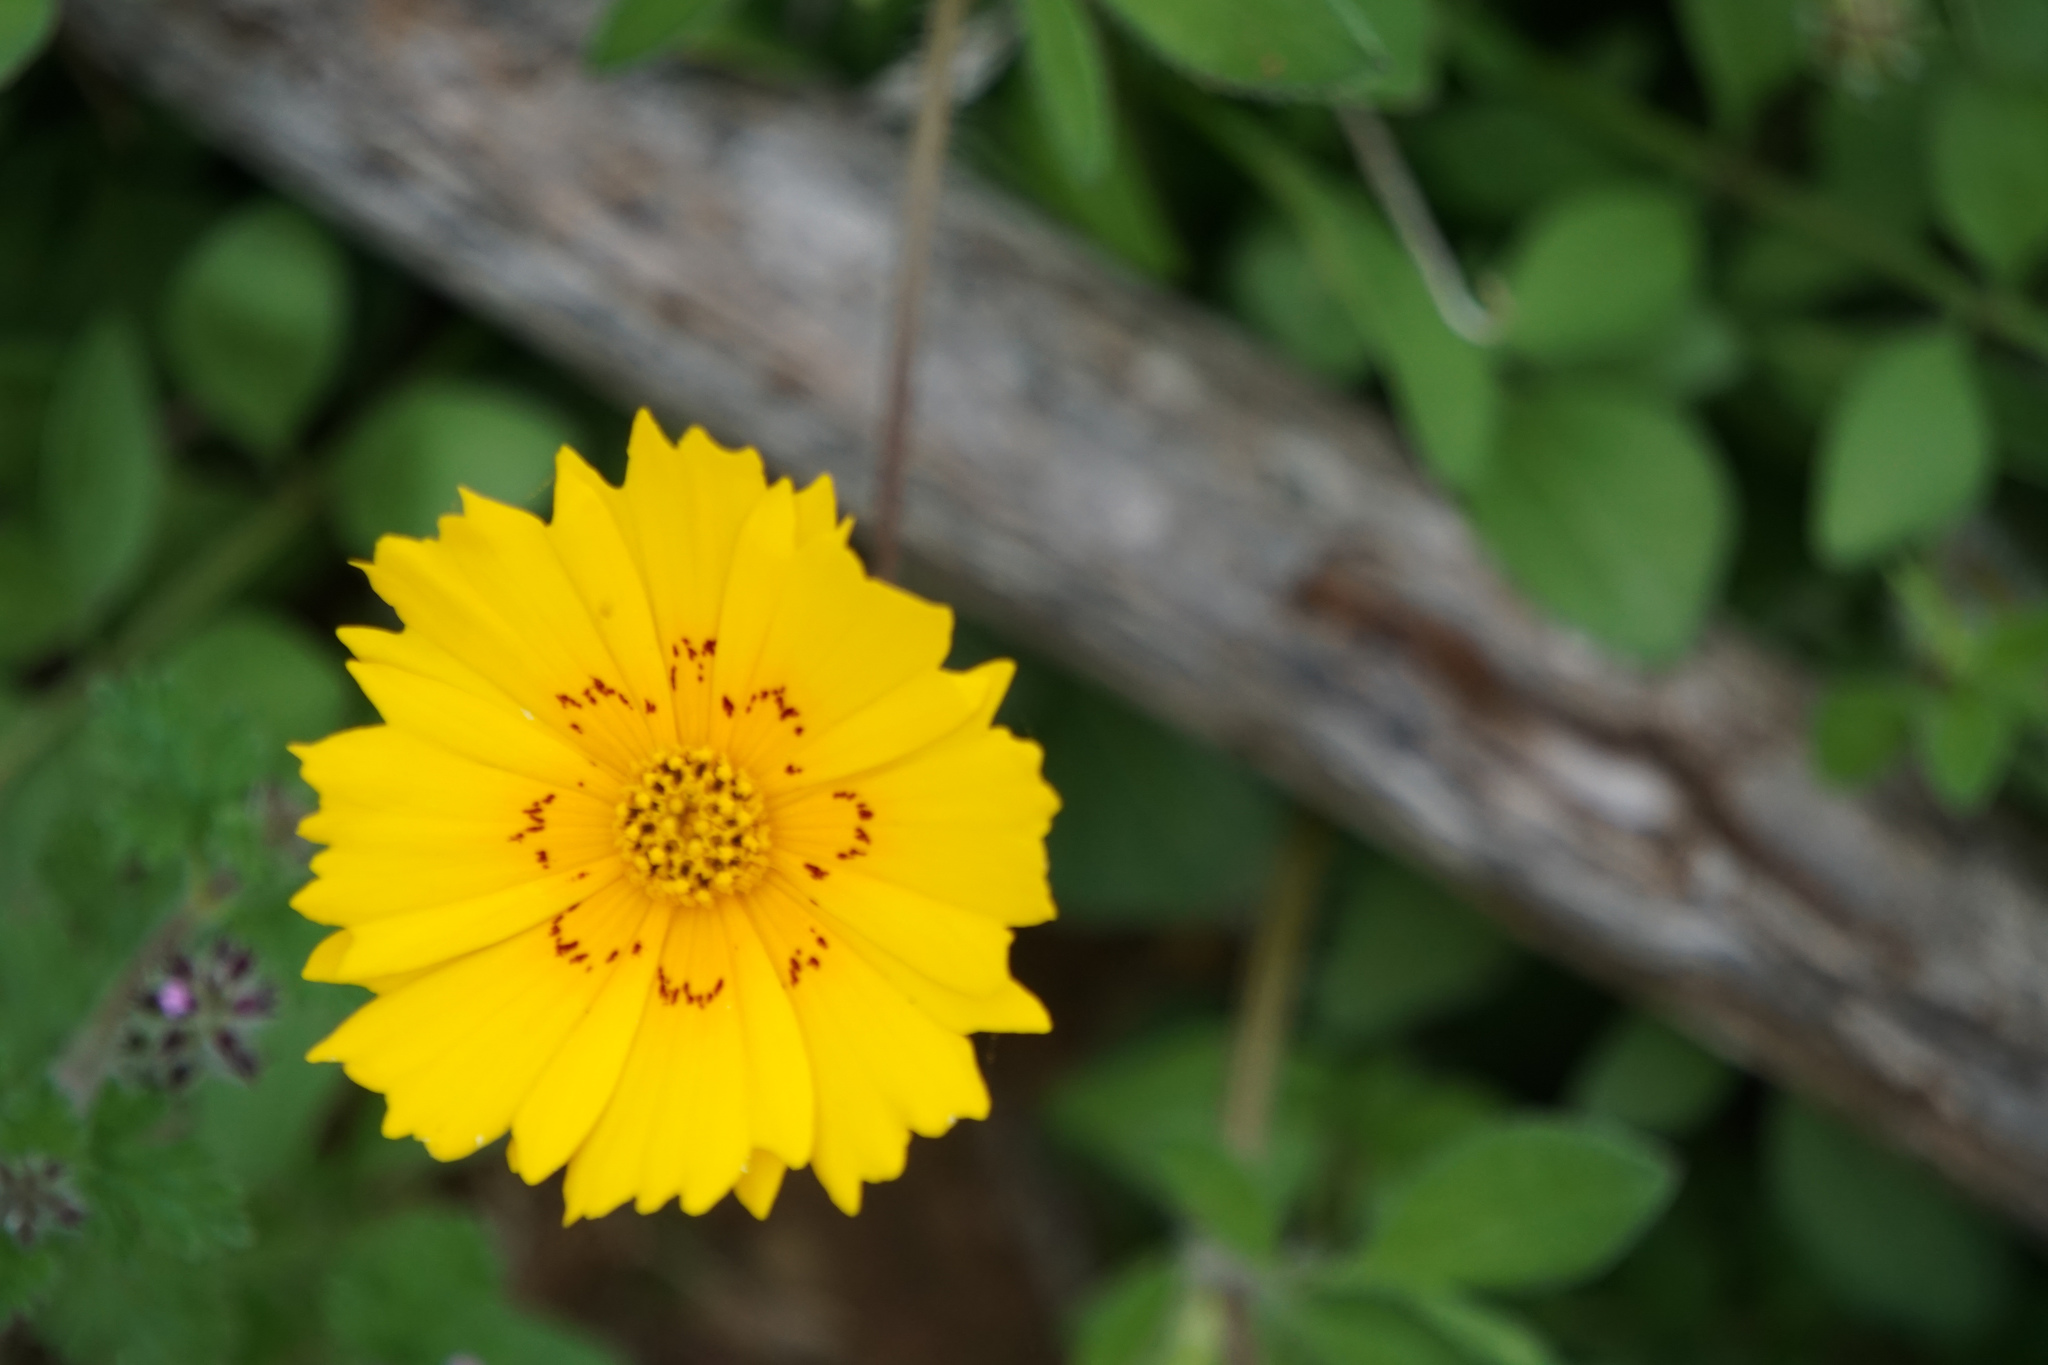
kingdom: Plantae
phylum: Tracheophyta
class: Magnoliopsida
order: Asterales
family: Asteraceae
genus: Coreopsis
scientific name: Coreopsis nuecensis
